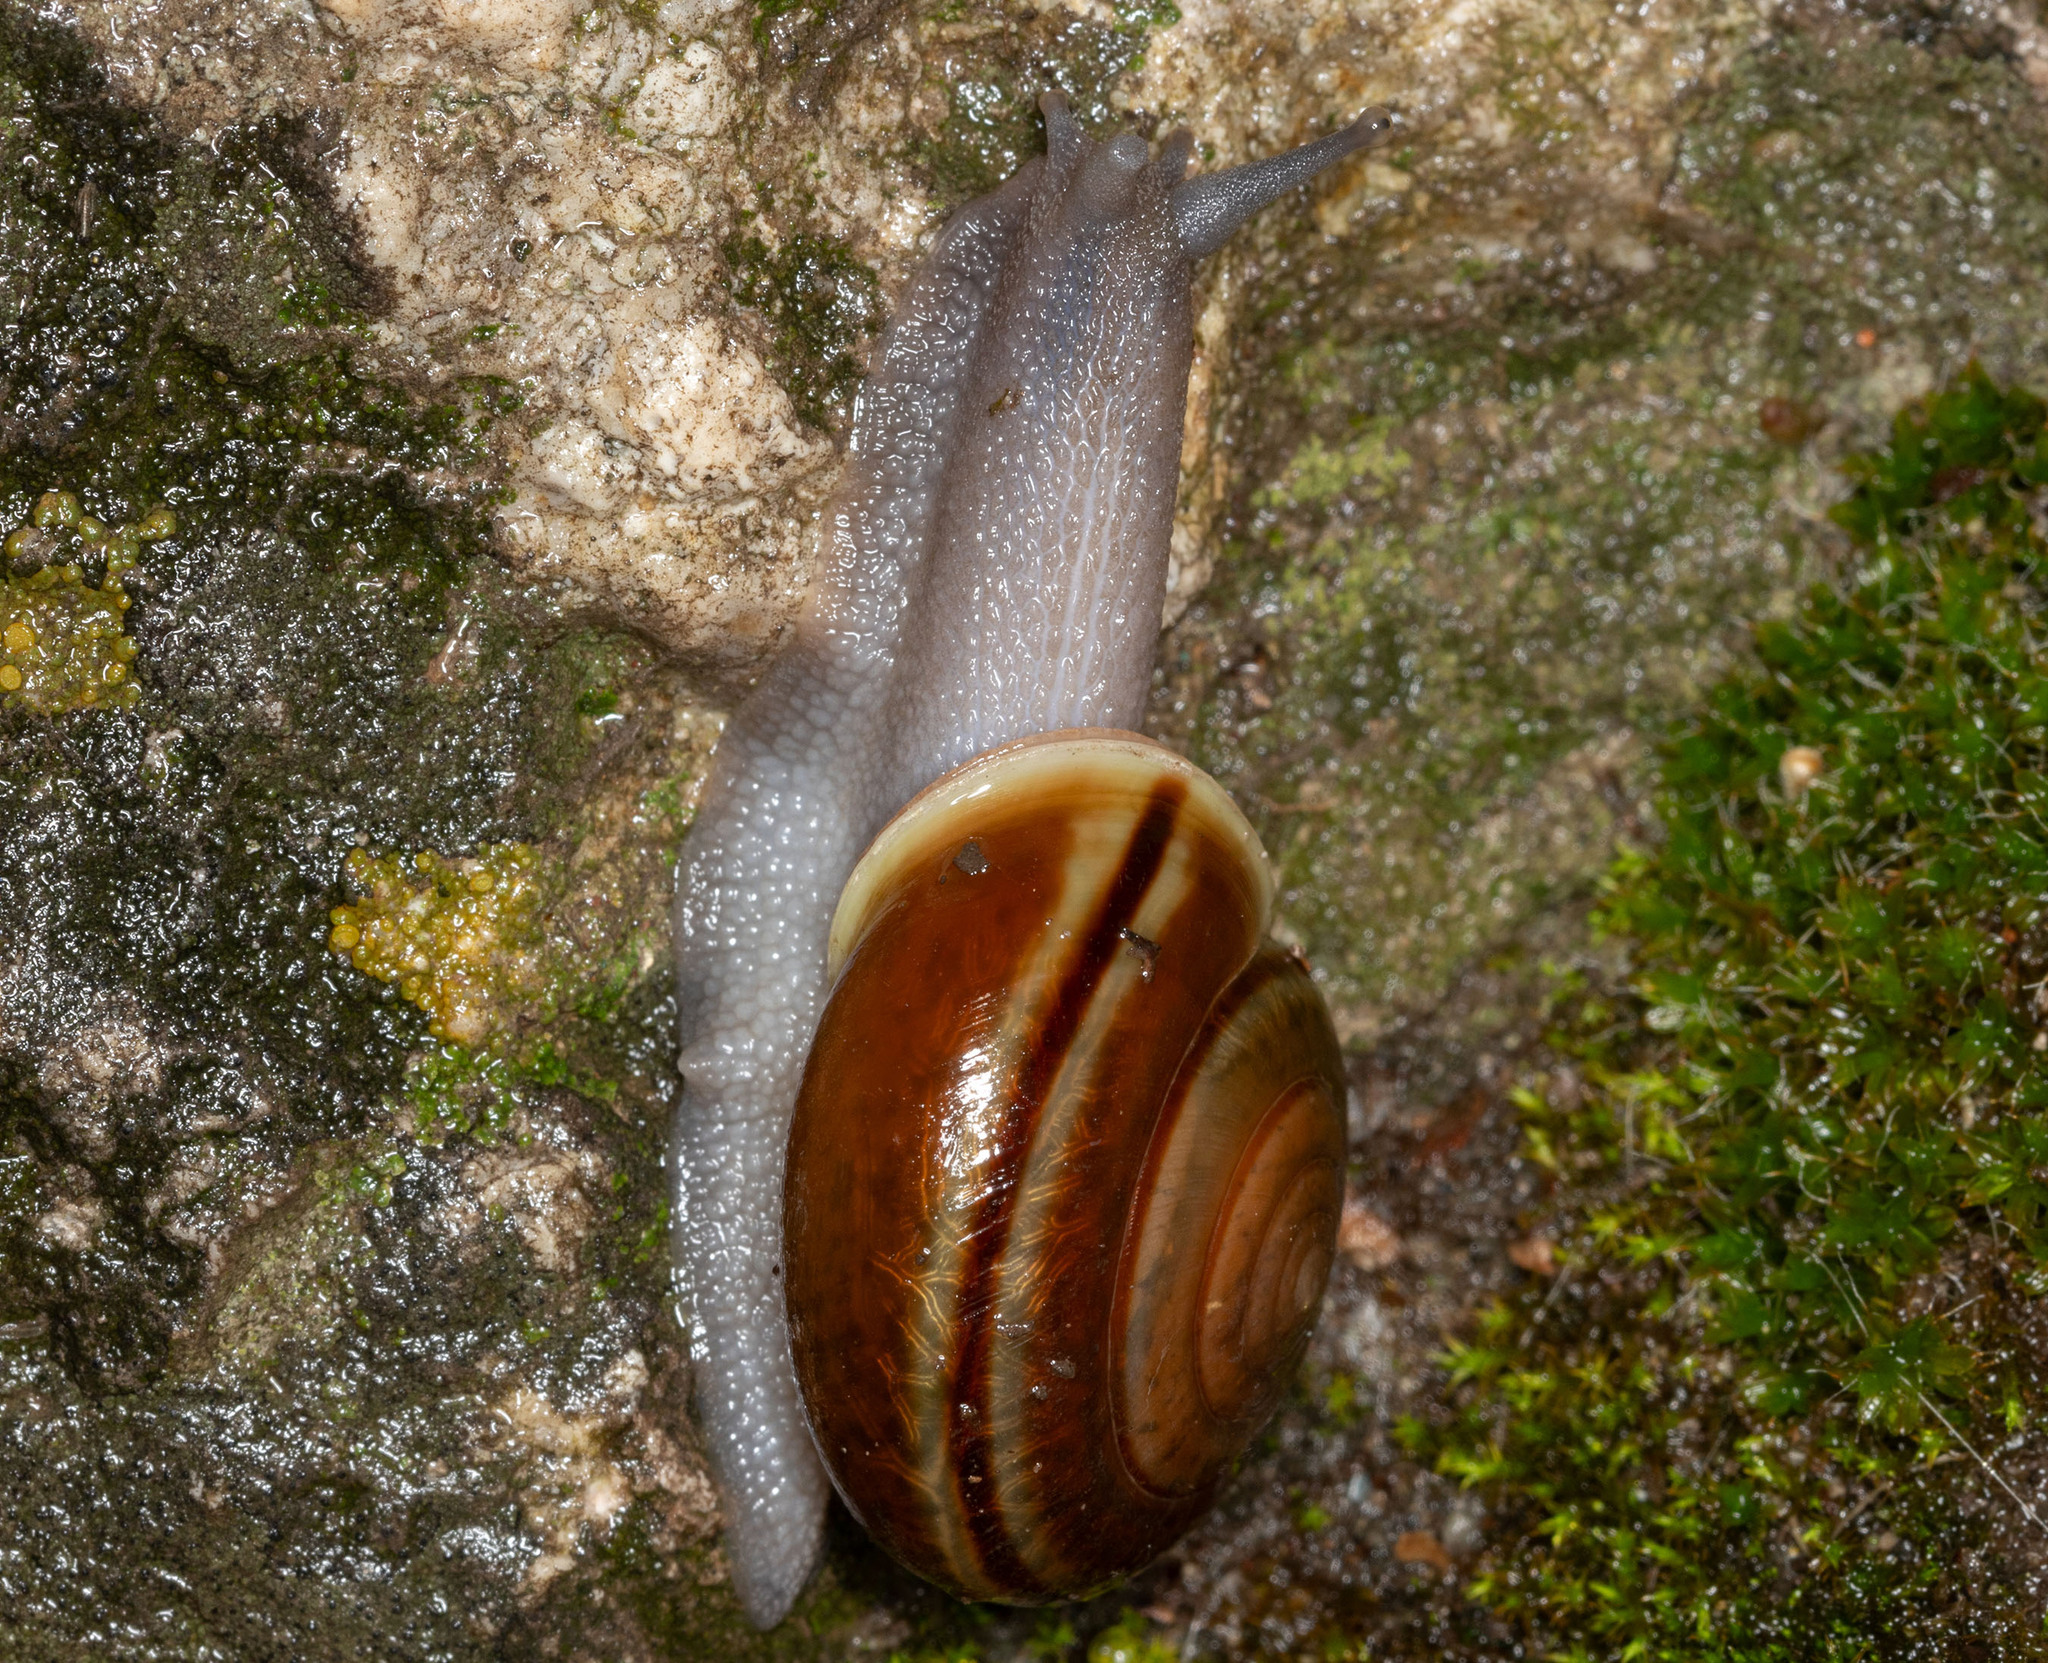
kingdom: Animalia
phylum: Mollusca
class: Gastropoda
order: Stylommatophora
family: Xanthonychidae
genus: Helminthoglypta
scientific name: Helminthoglypta benitoensis
